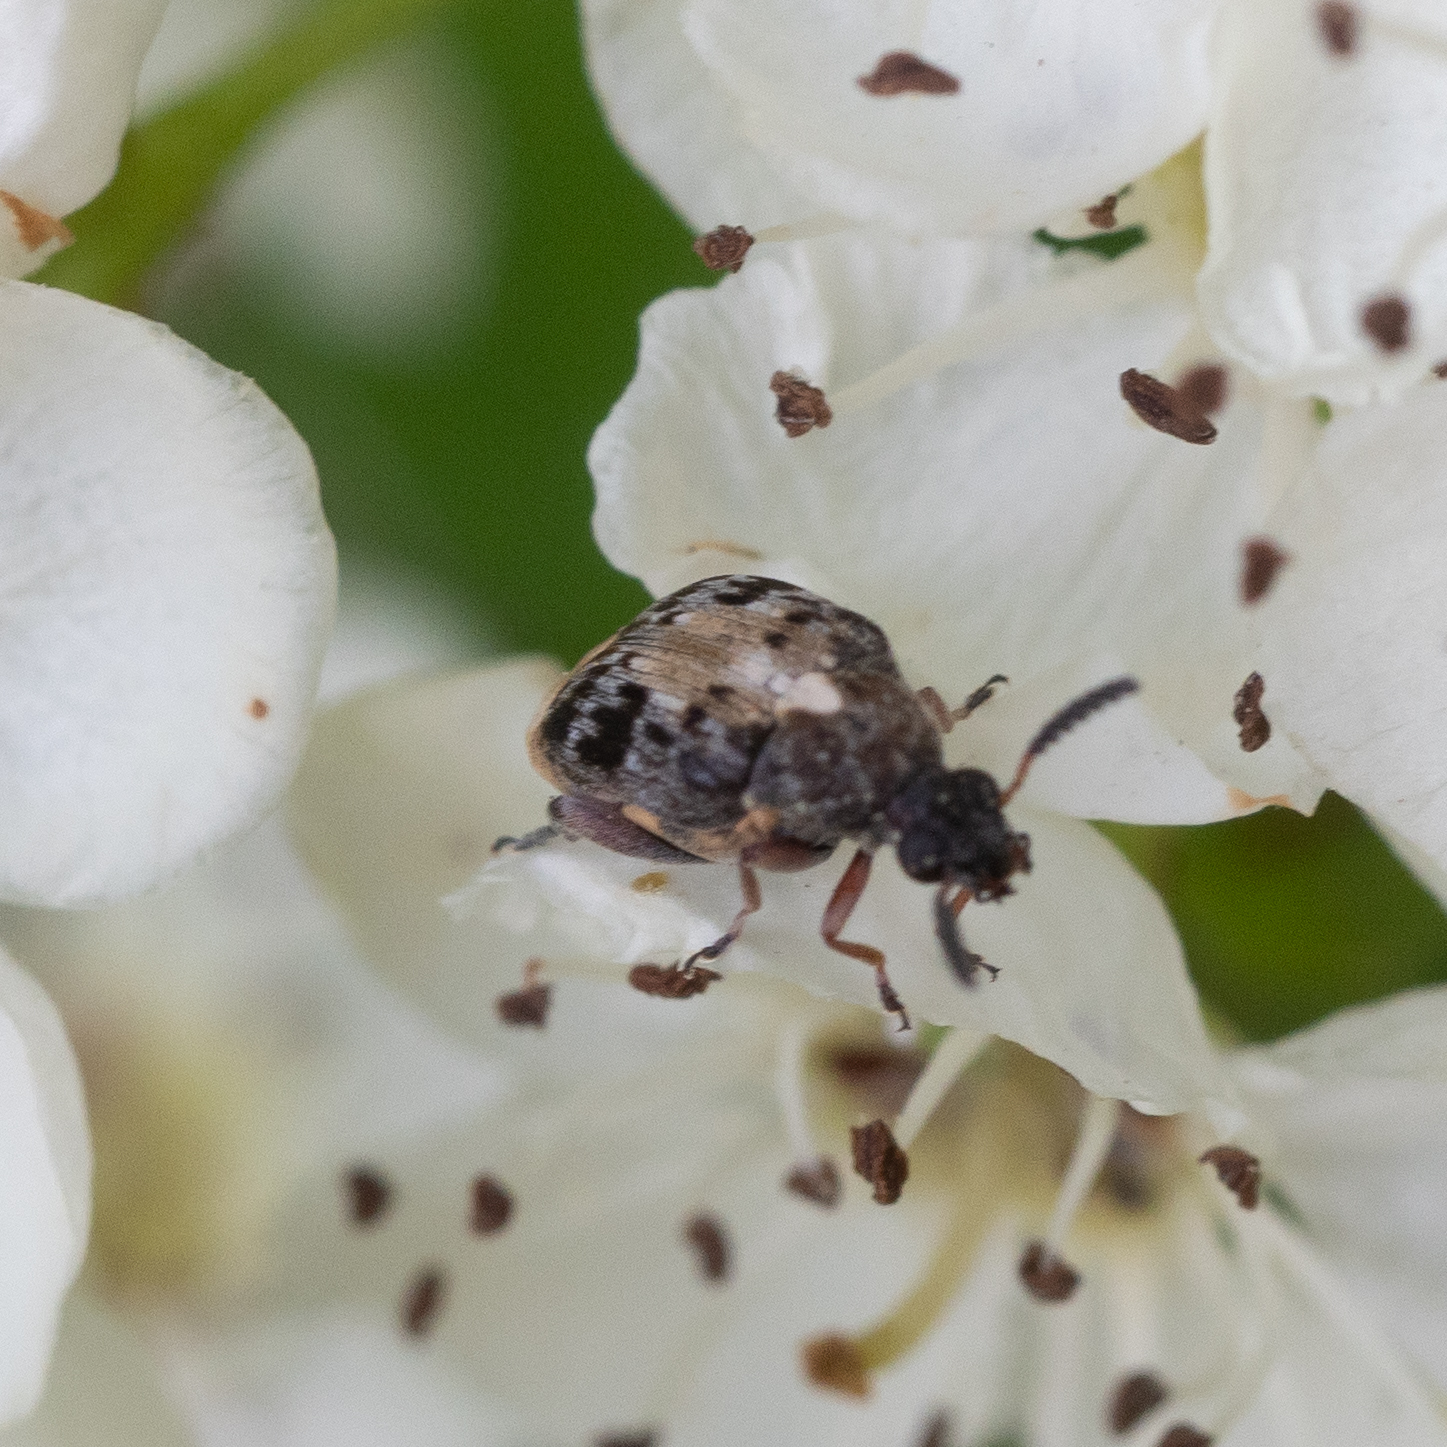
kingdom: Animalia
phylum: Arthropoda
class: Insecta
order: Coleoptera
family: Chrysomelidae
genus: Megabruchidius
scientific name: Megabruchidius dorsalis
